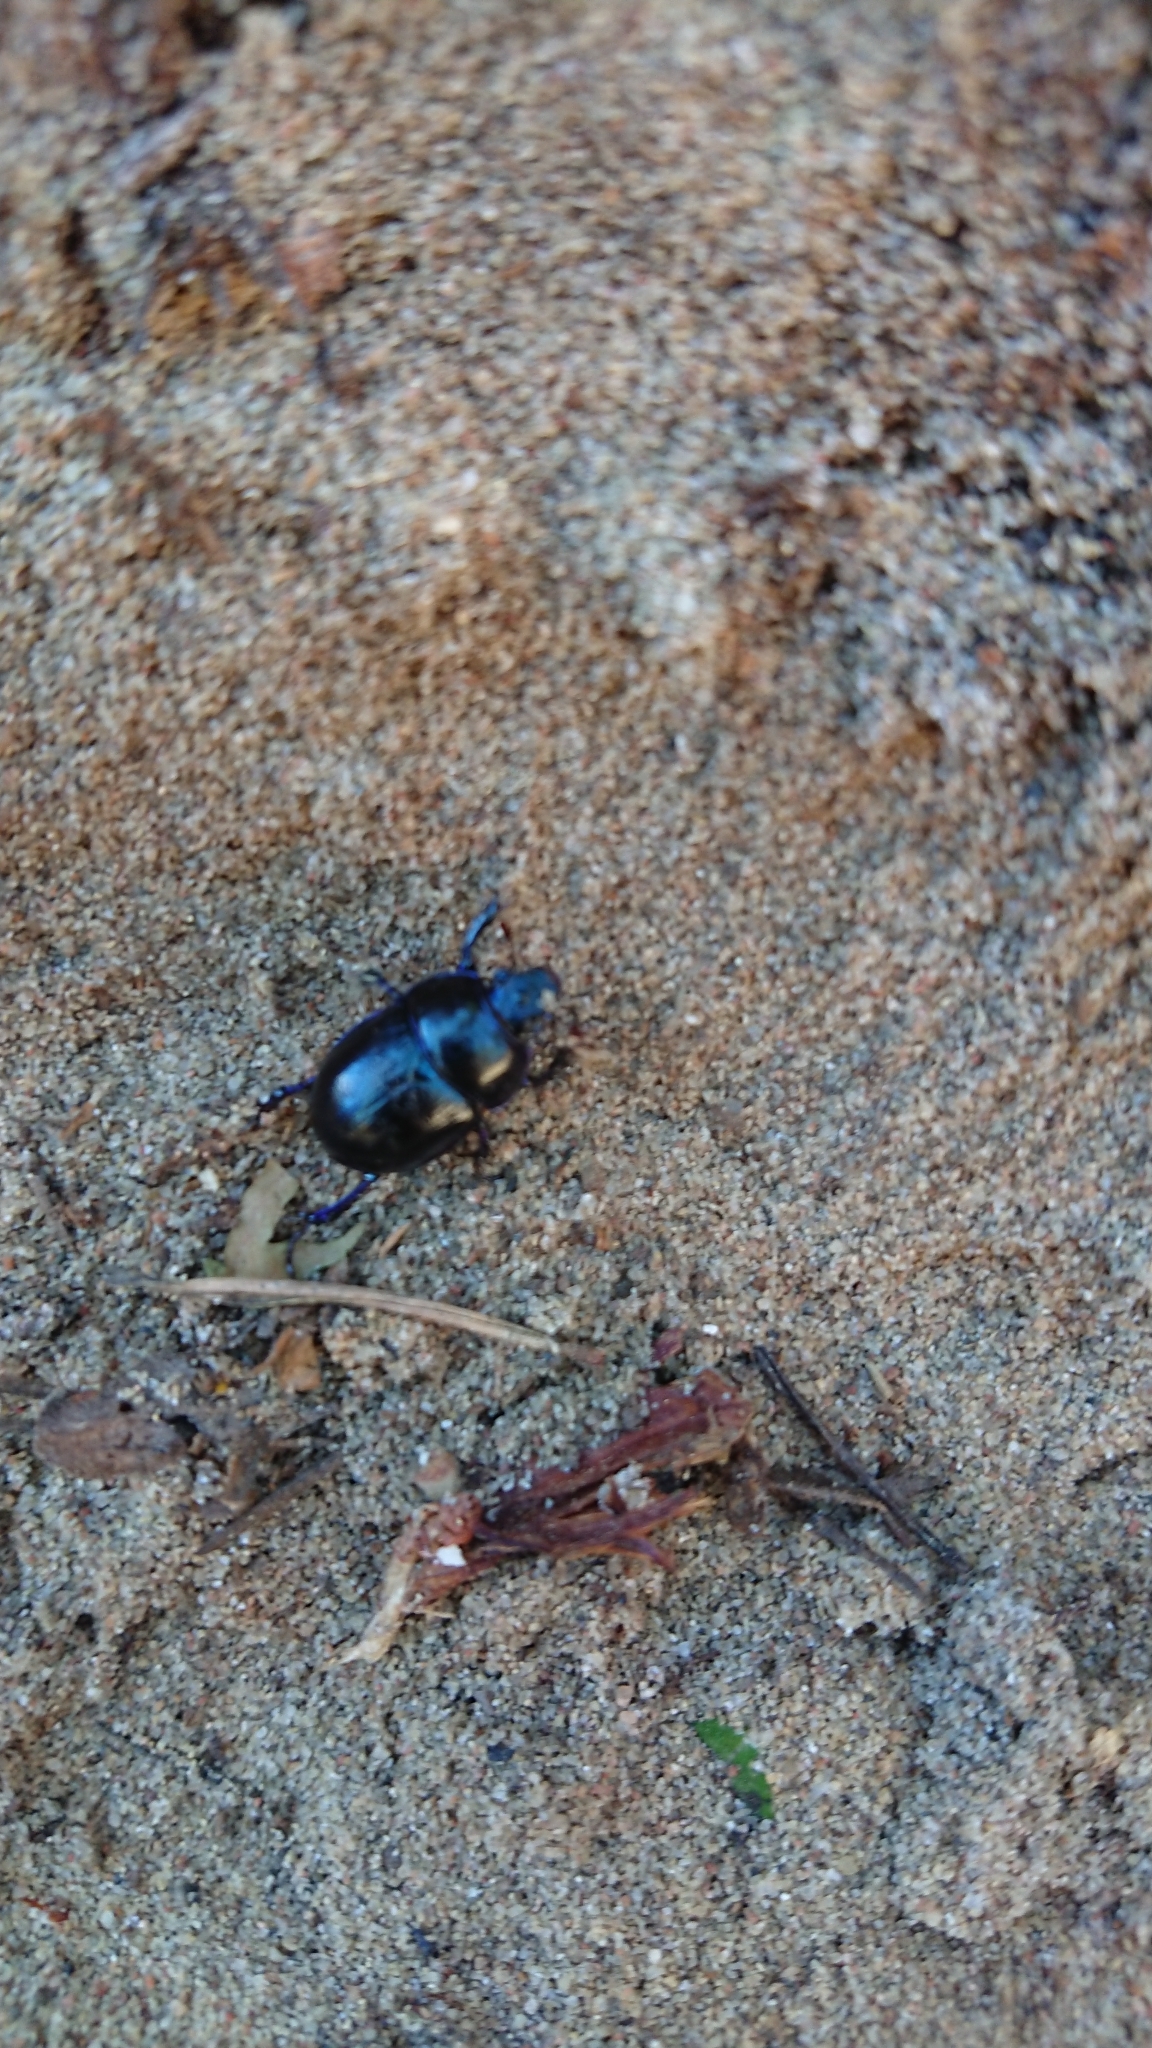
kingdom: Animalia
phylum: Arthropoda
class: Insecta
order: Coleoptera
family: Geotrupidae
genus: Anoplotrupes
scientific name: Anoplotrupes stercorosus
